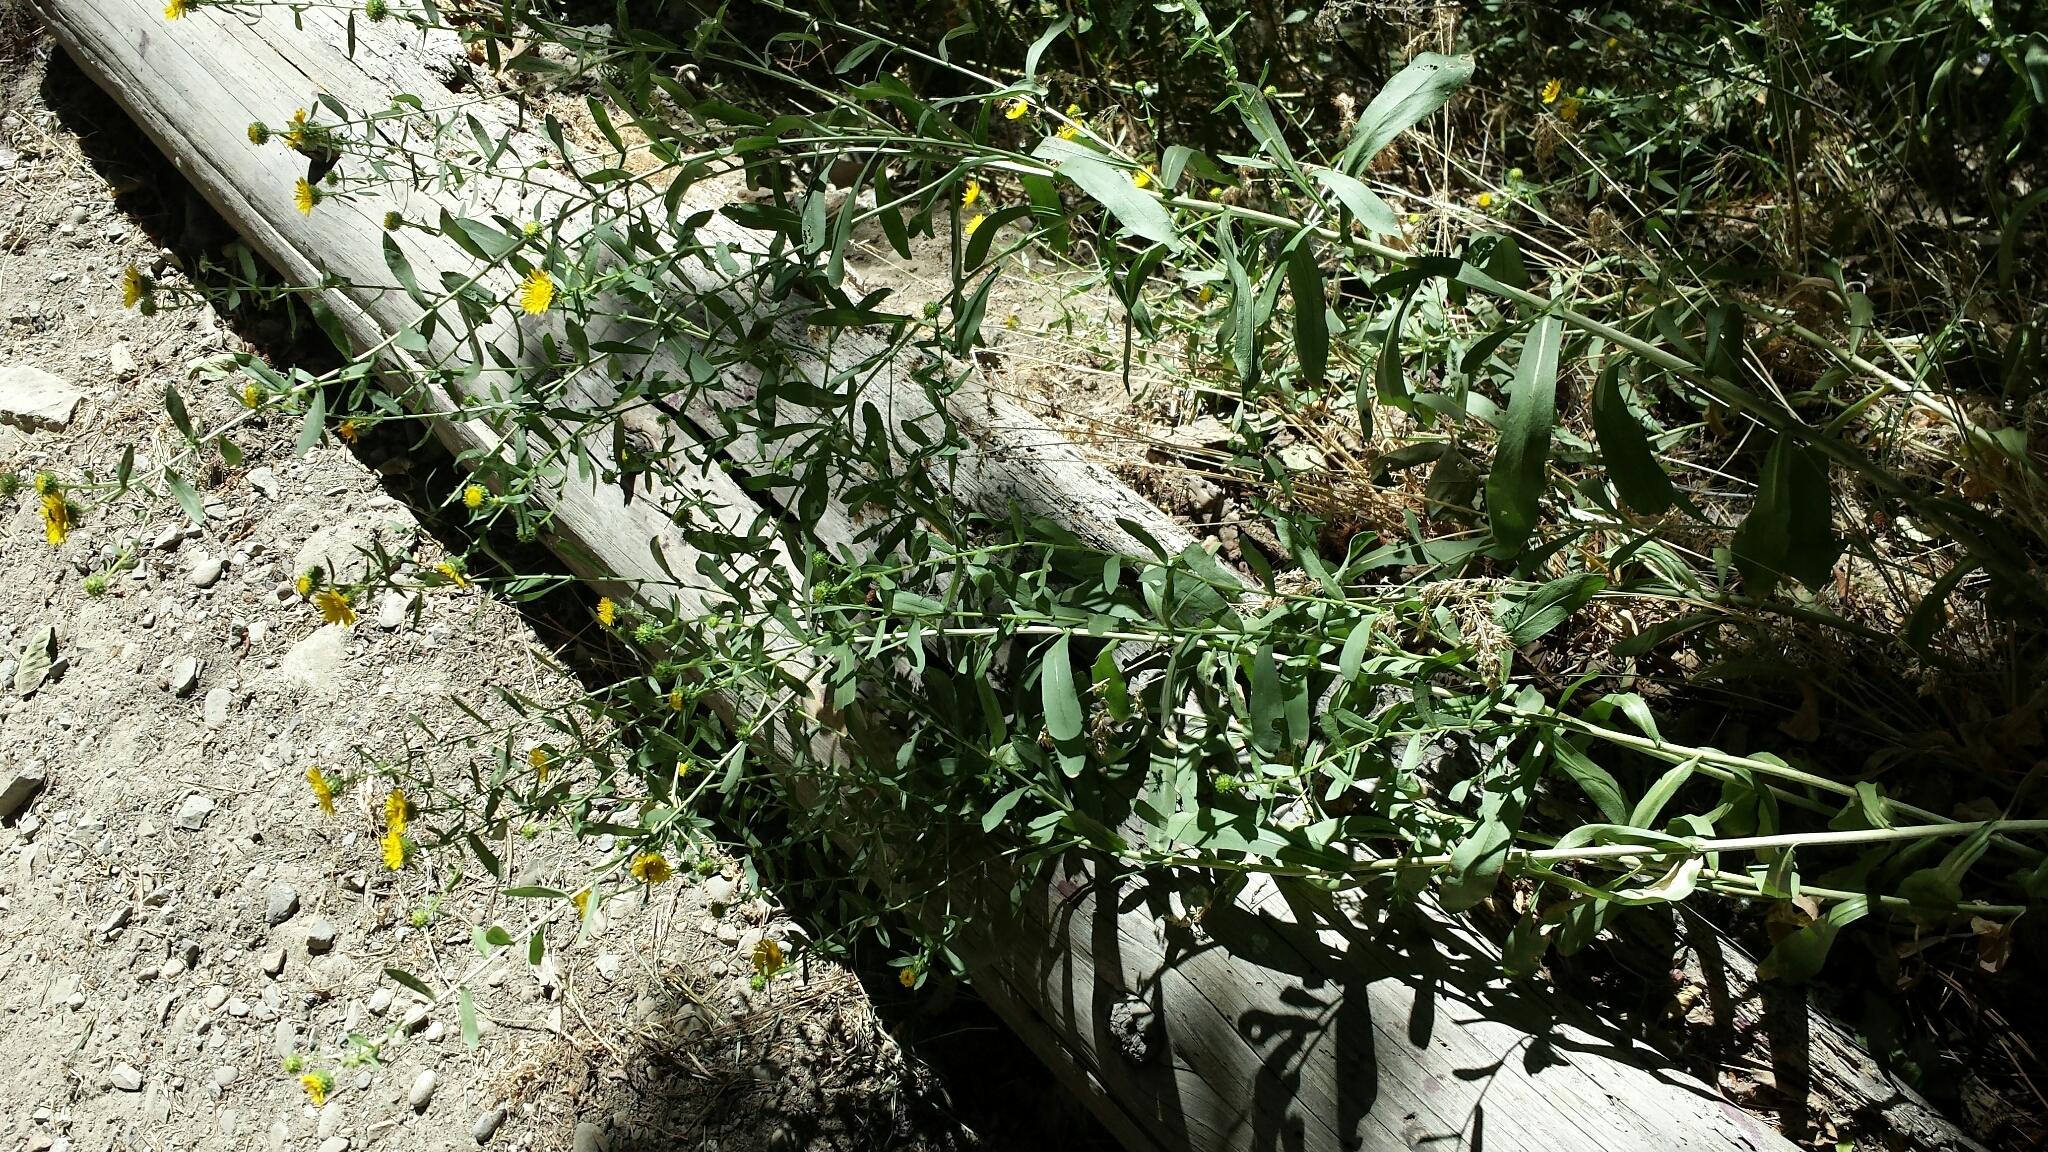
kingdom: Plantae
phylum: Tracheophyta
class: Magnoliopsida
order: Asterales
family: Asteraceae
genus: Grindelia
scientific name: Grindelia hirsutula
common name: Hairy gumweed
